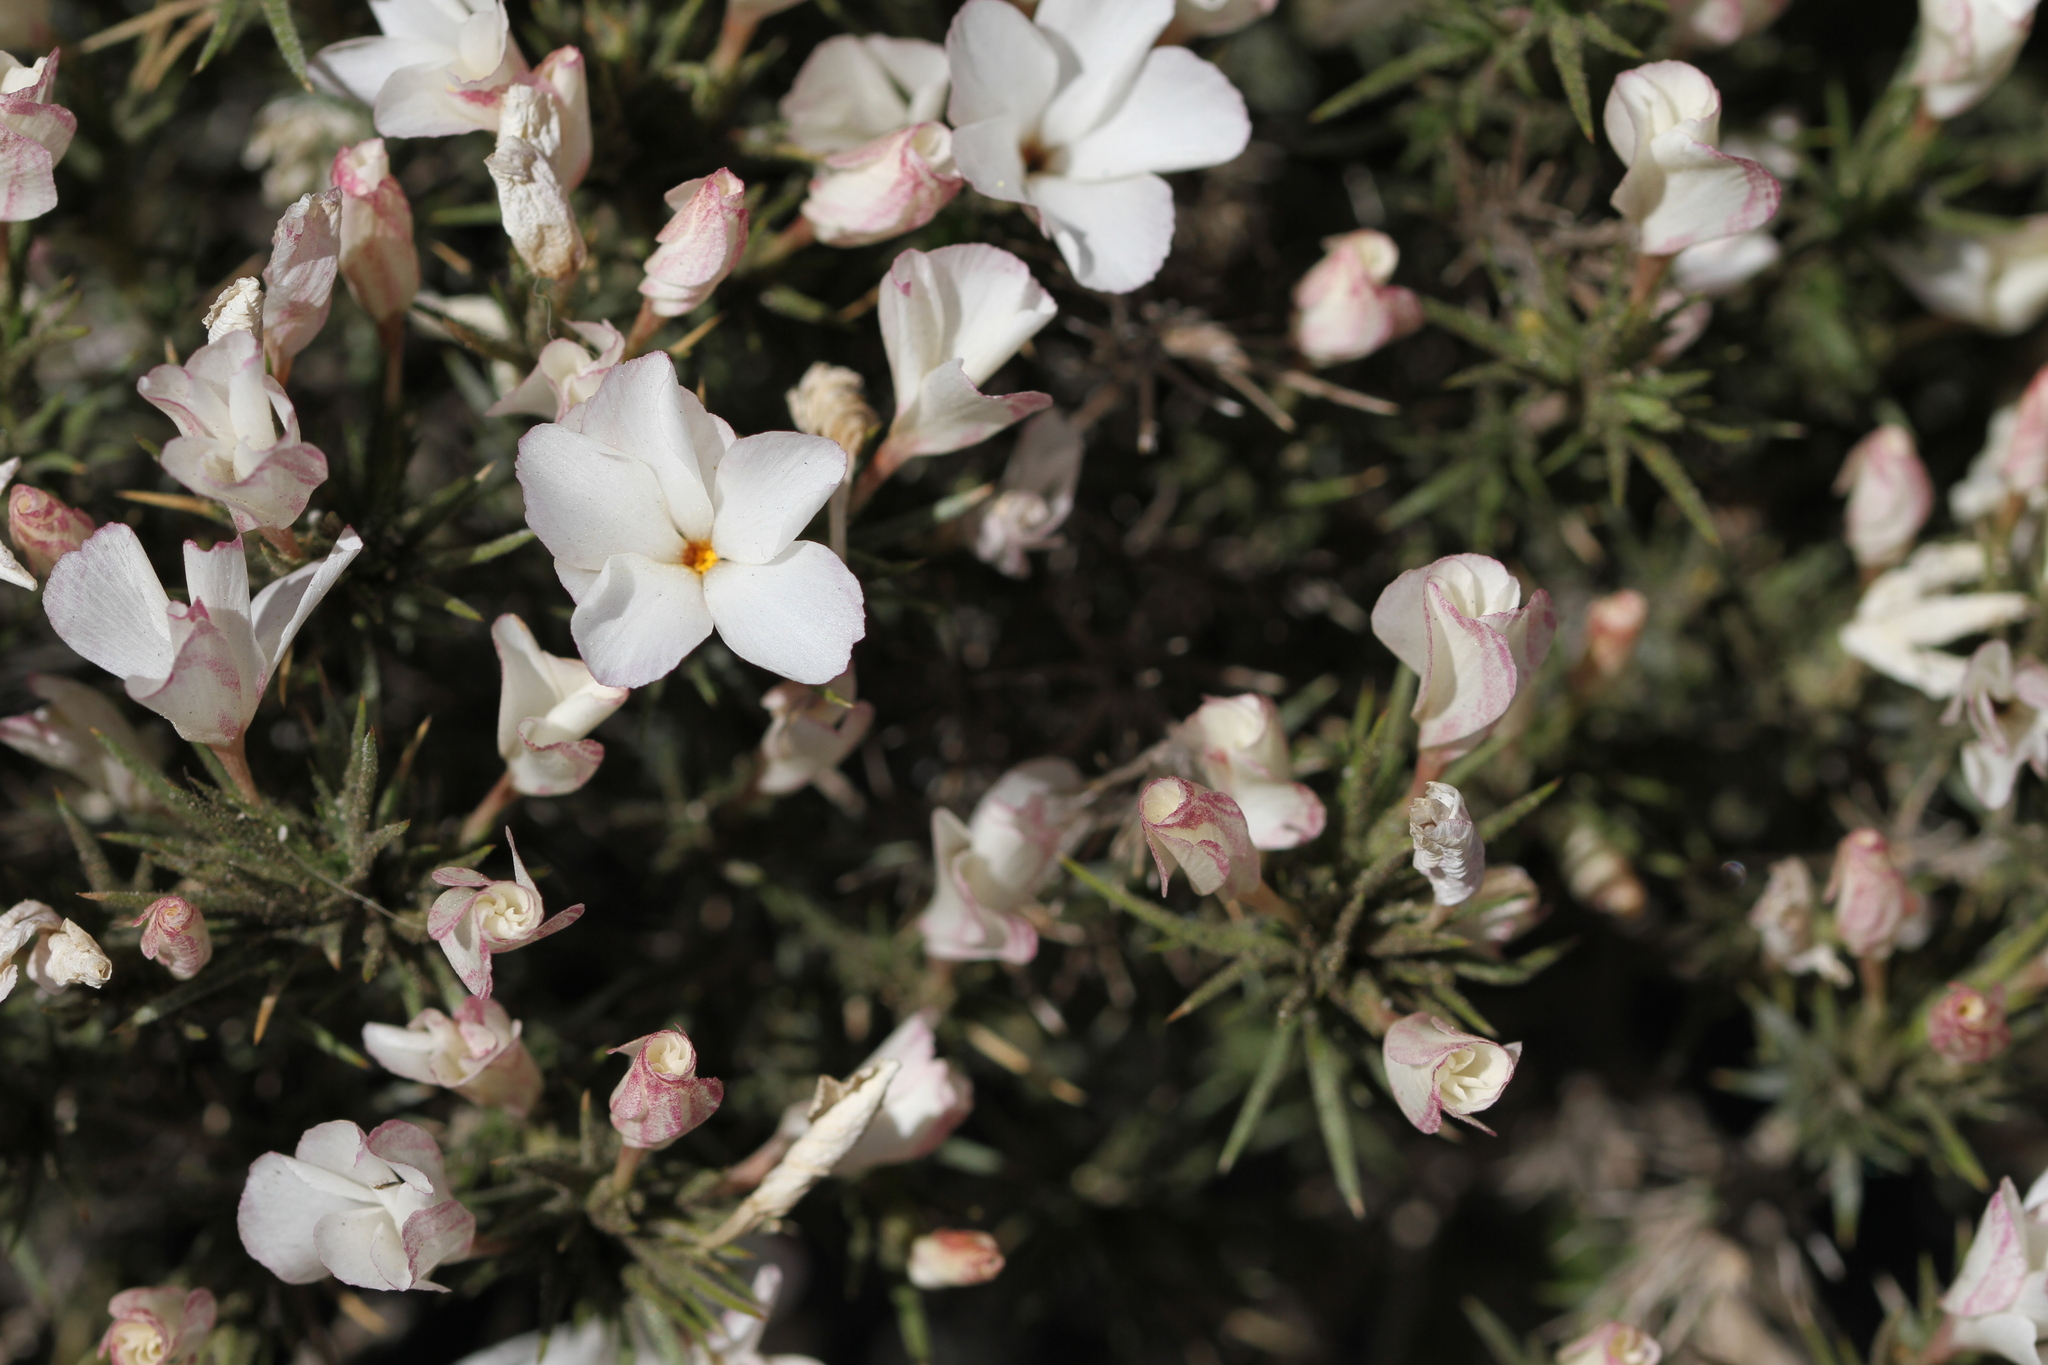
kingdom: Plantae
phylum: Tracheophyta
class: Magnoliopsida
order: Ericales
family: Polemoniaceae
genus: Linanthus
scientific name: Linanthus pungens
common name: Granite prickly phlox
